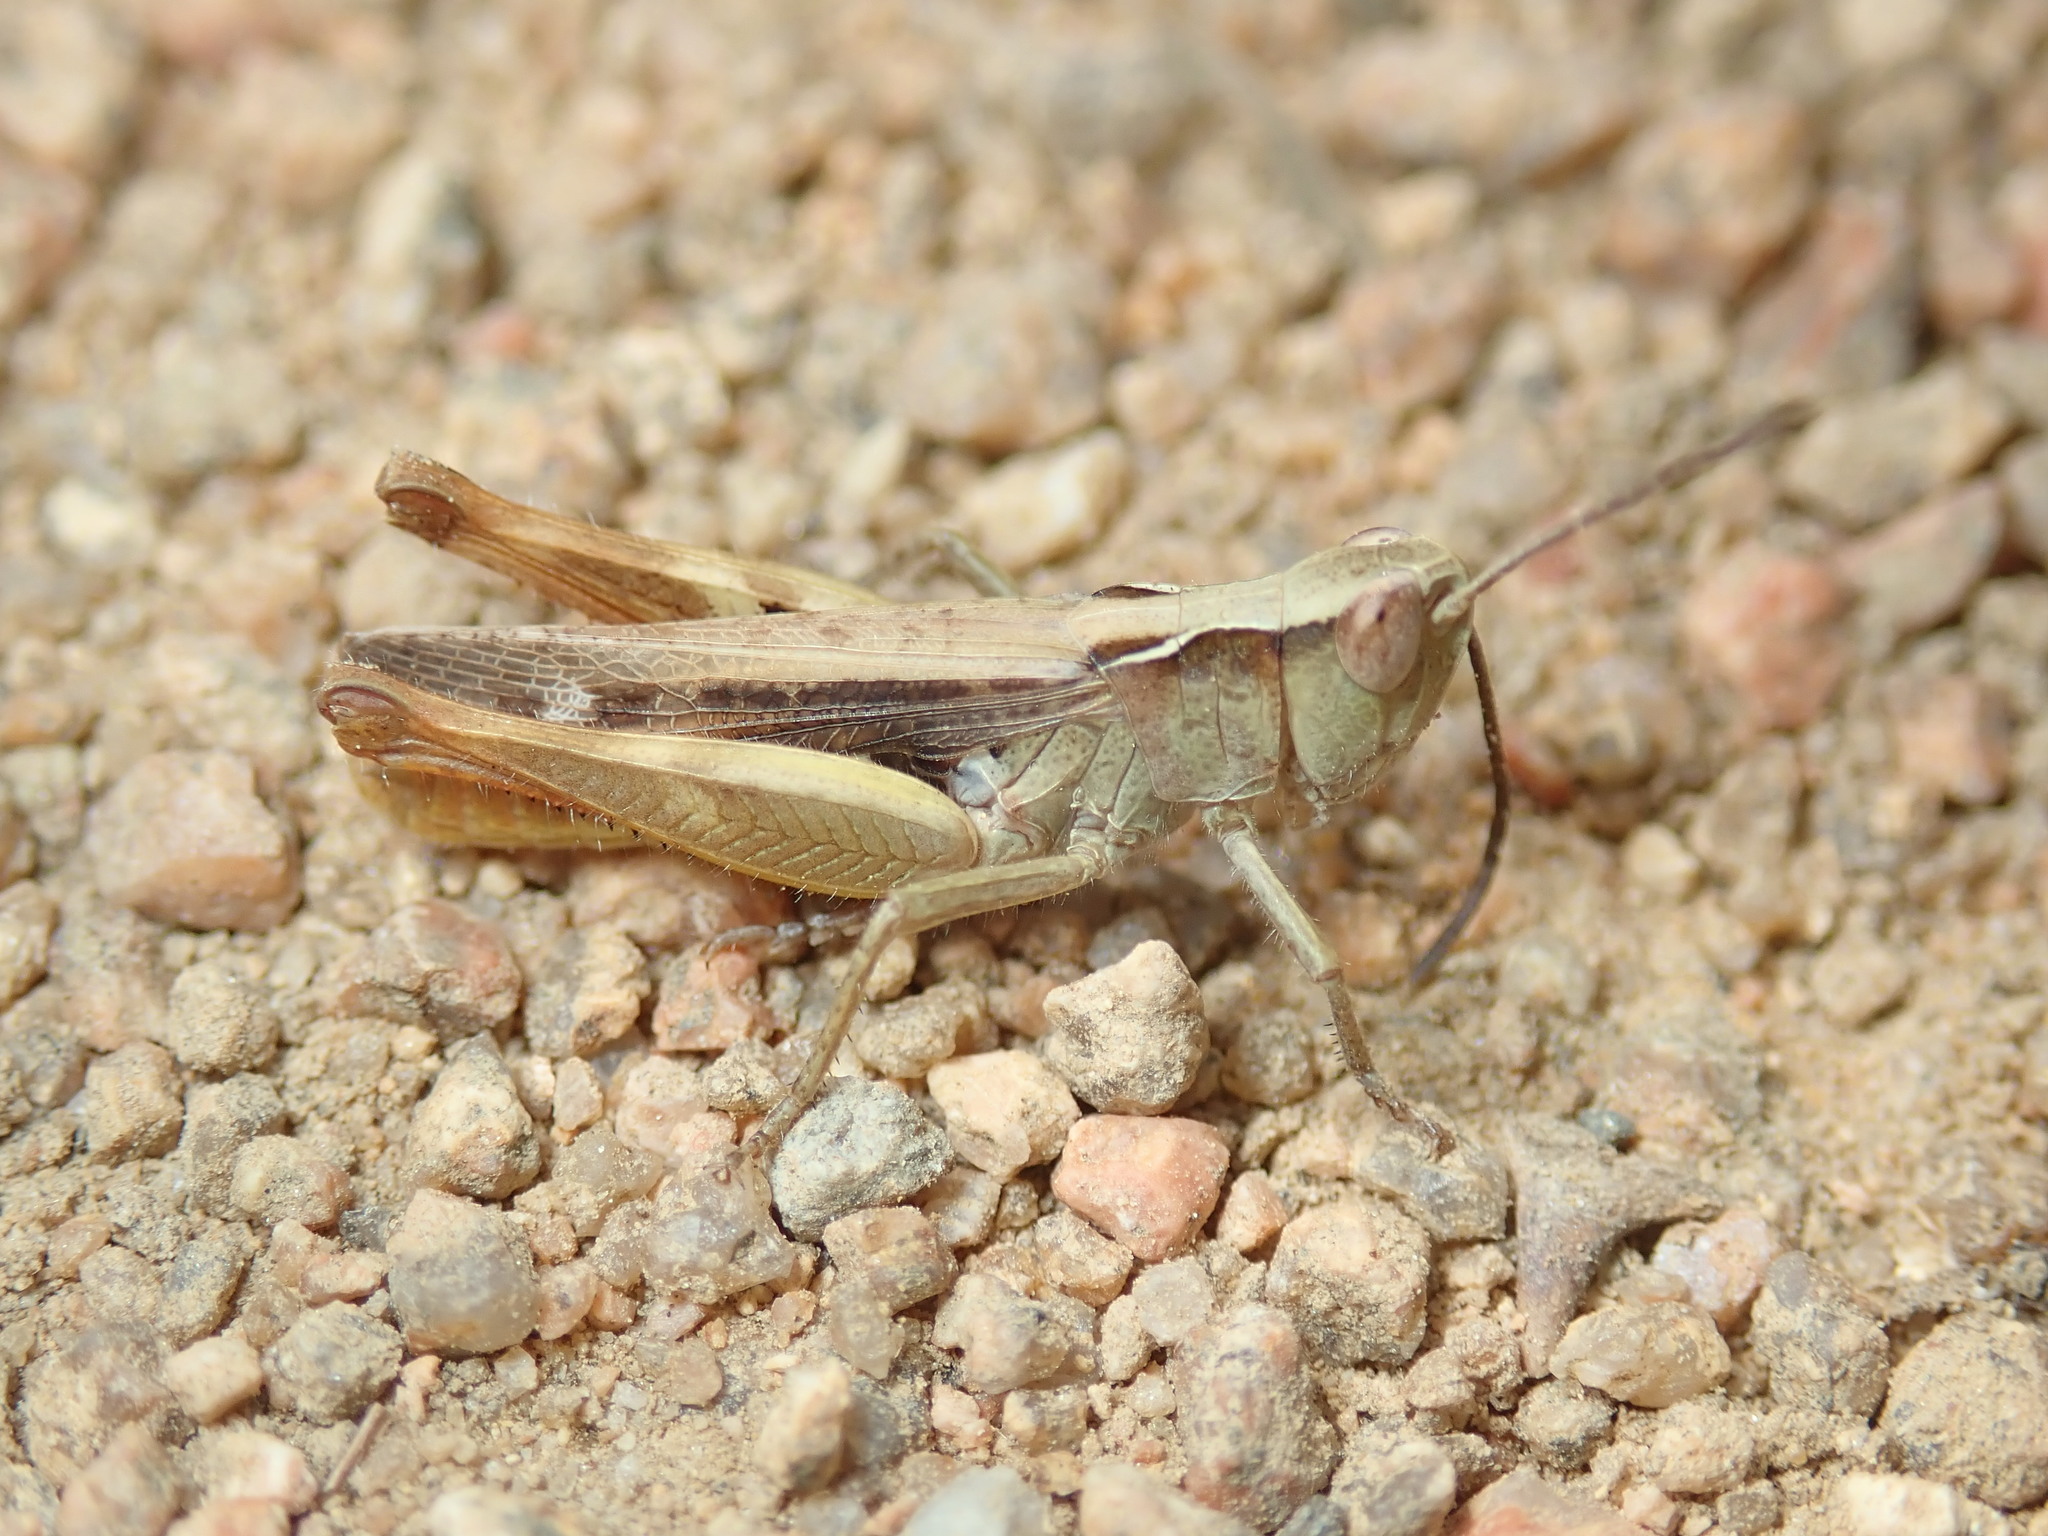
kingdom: Animalia
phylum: Arthropoda
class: Insecta
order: Orthoptera
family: Acrididae
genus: Chorthippus
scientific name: Chorthippus vagans
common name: Heath grasshopper
